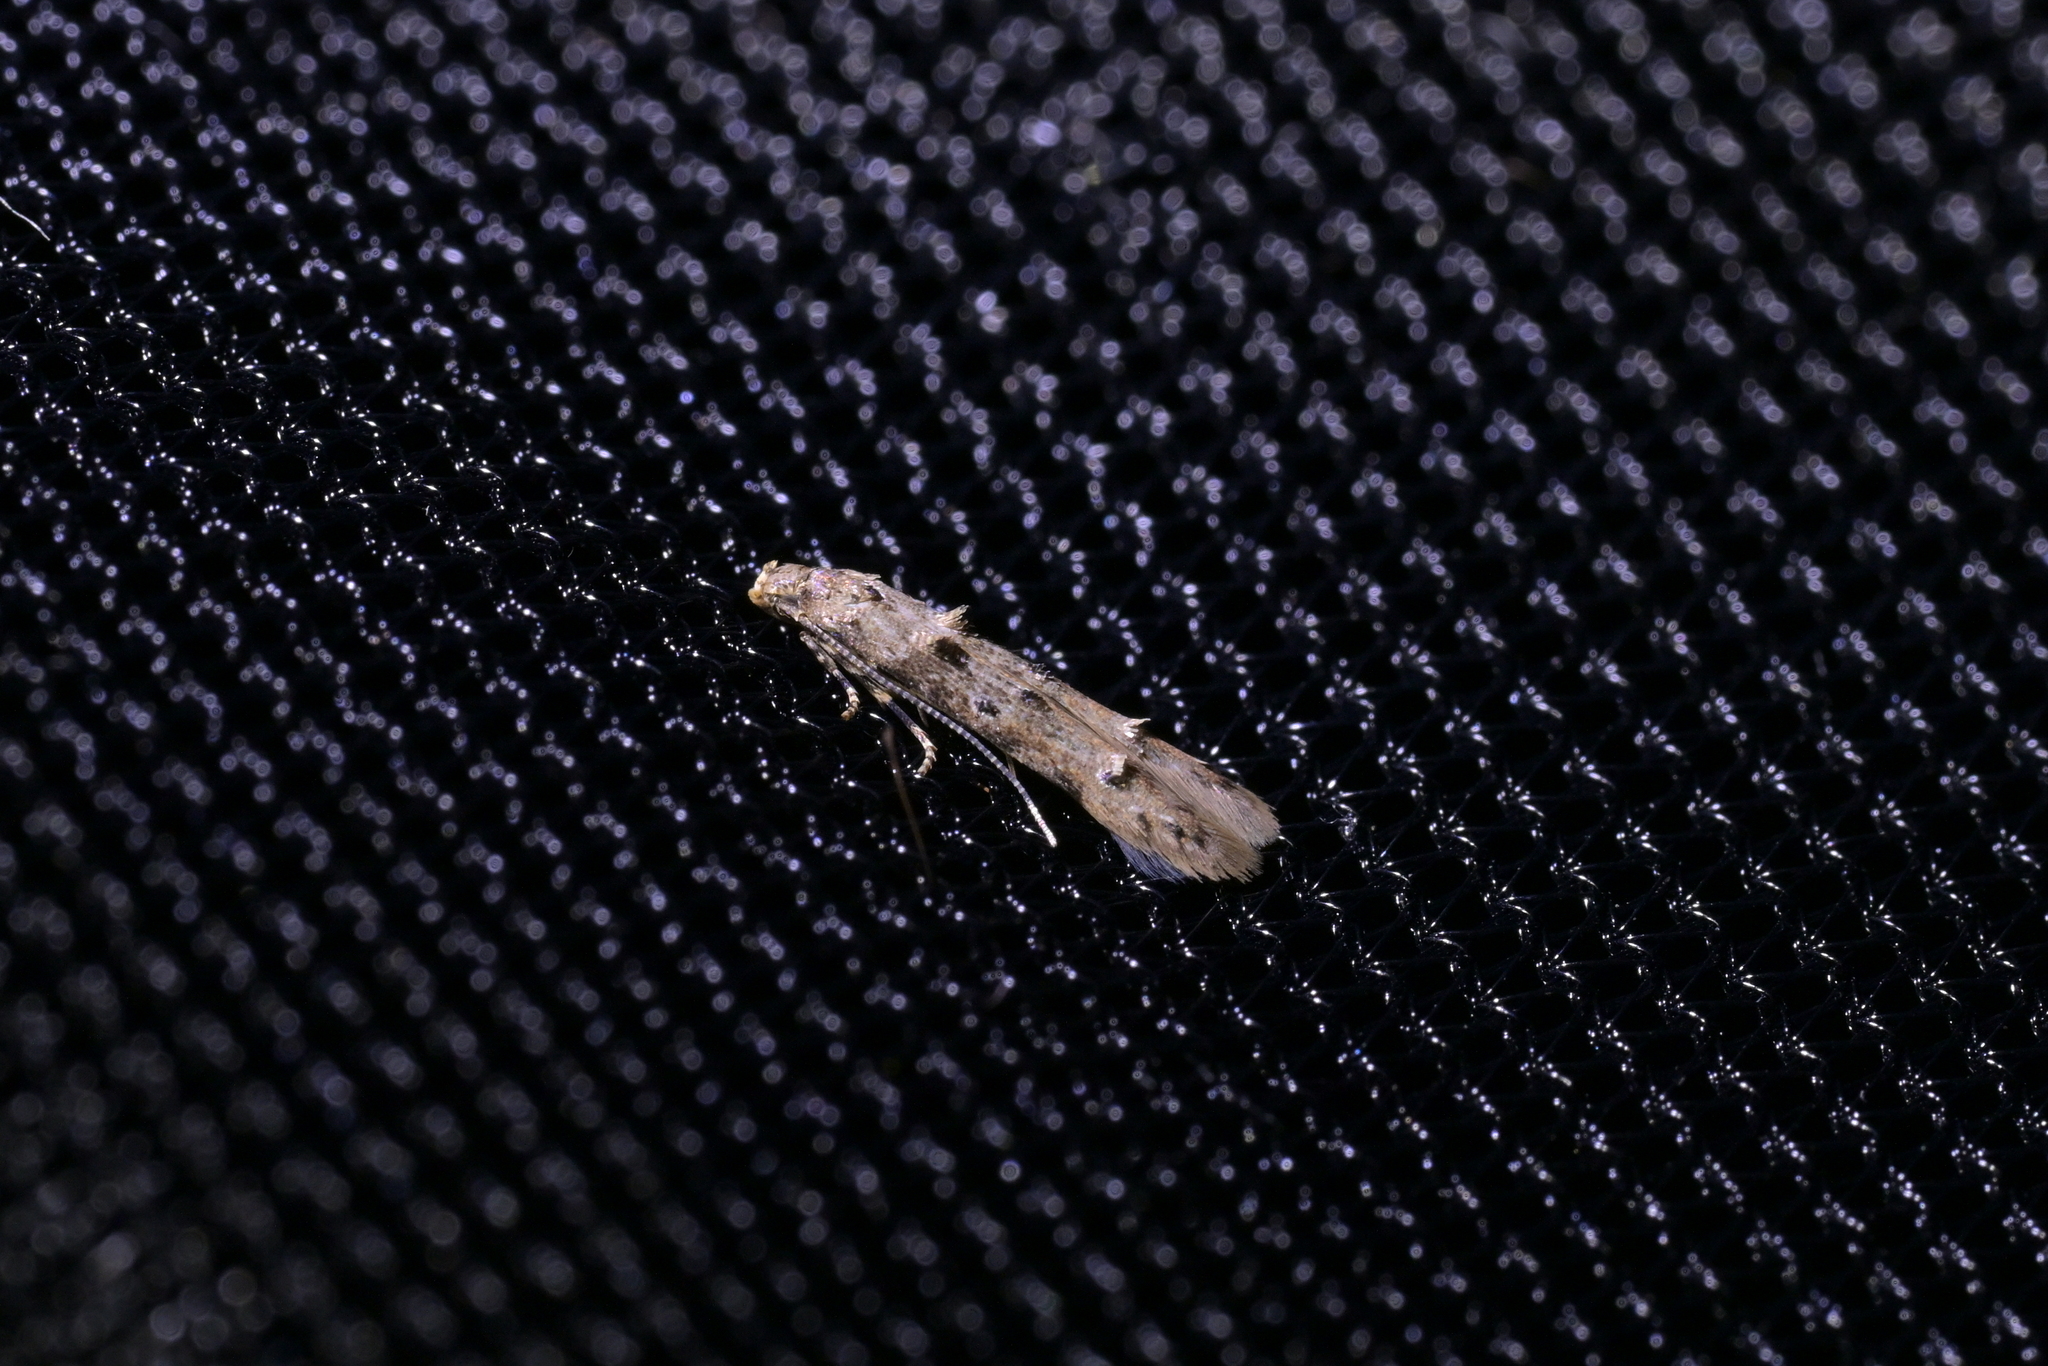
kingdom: Animalia
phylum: Arthropoda
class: Insecta
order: Lepidoptera
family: Elachistidae
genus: Microcolona
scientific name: Microcolona limodes
